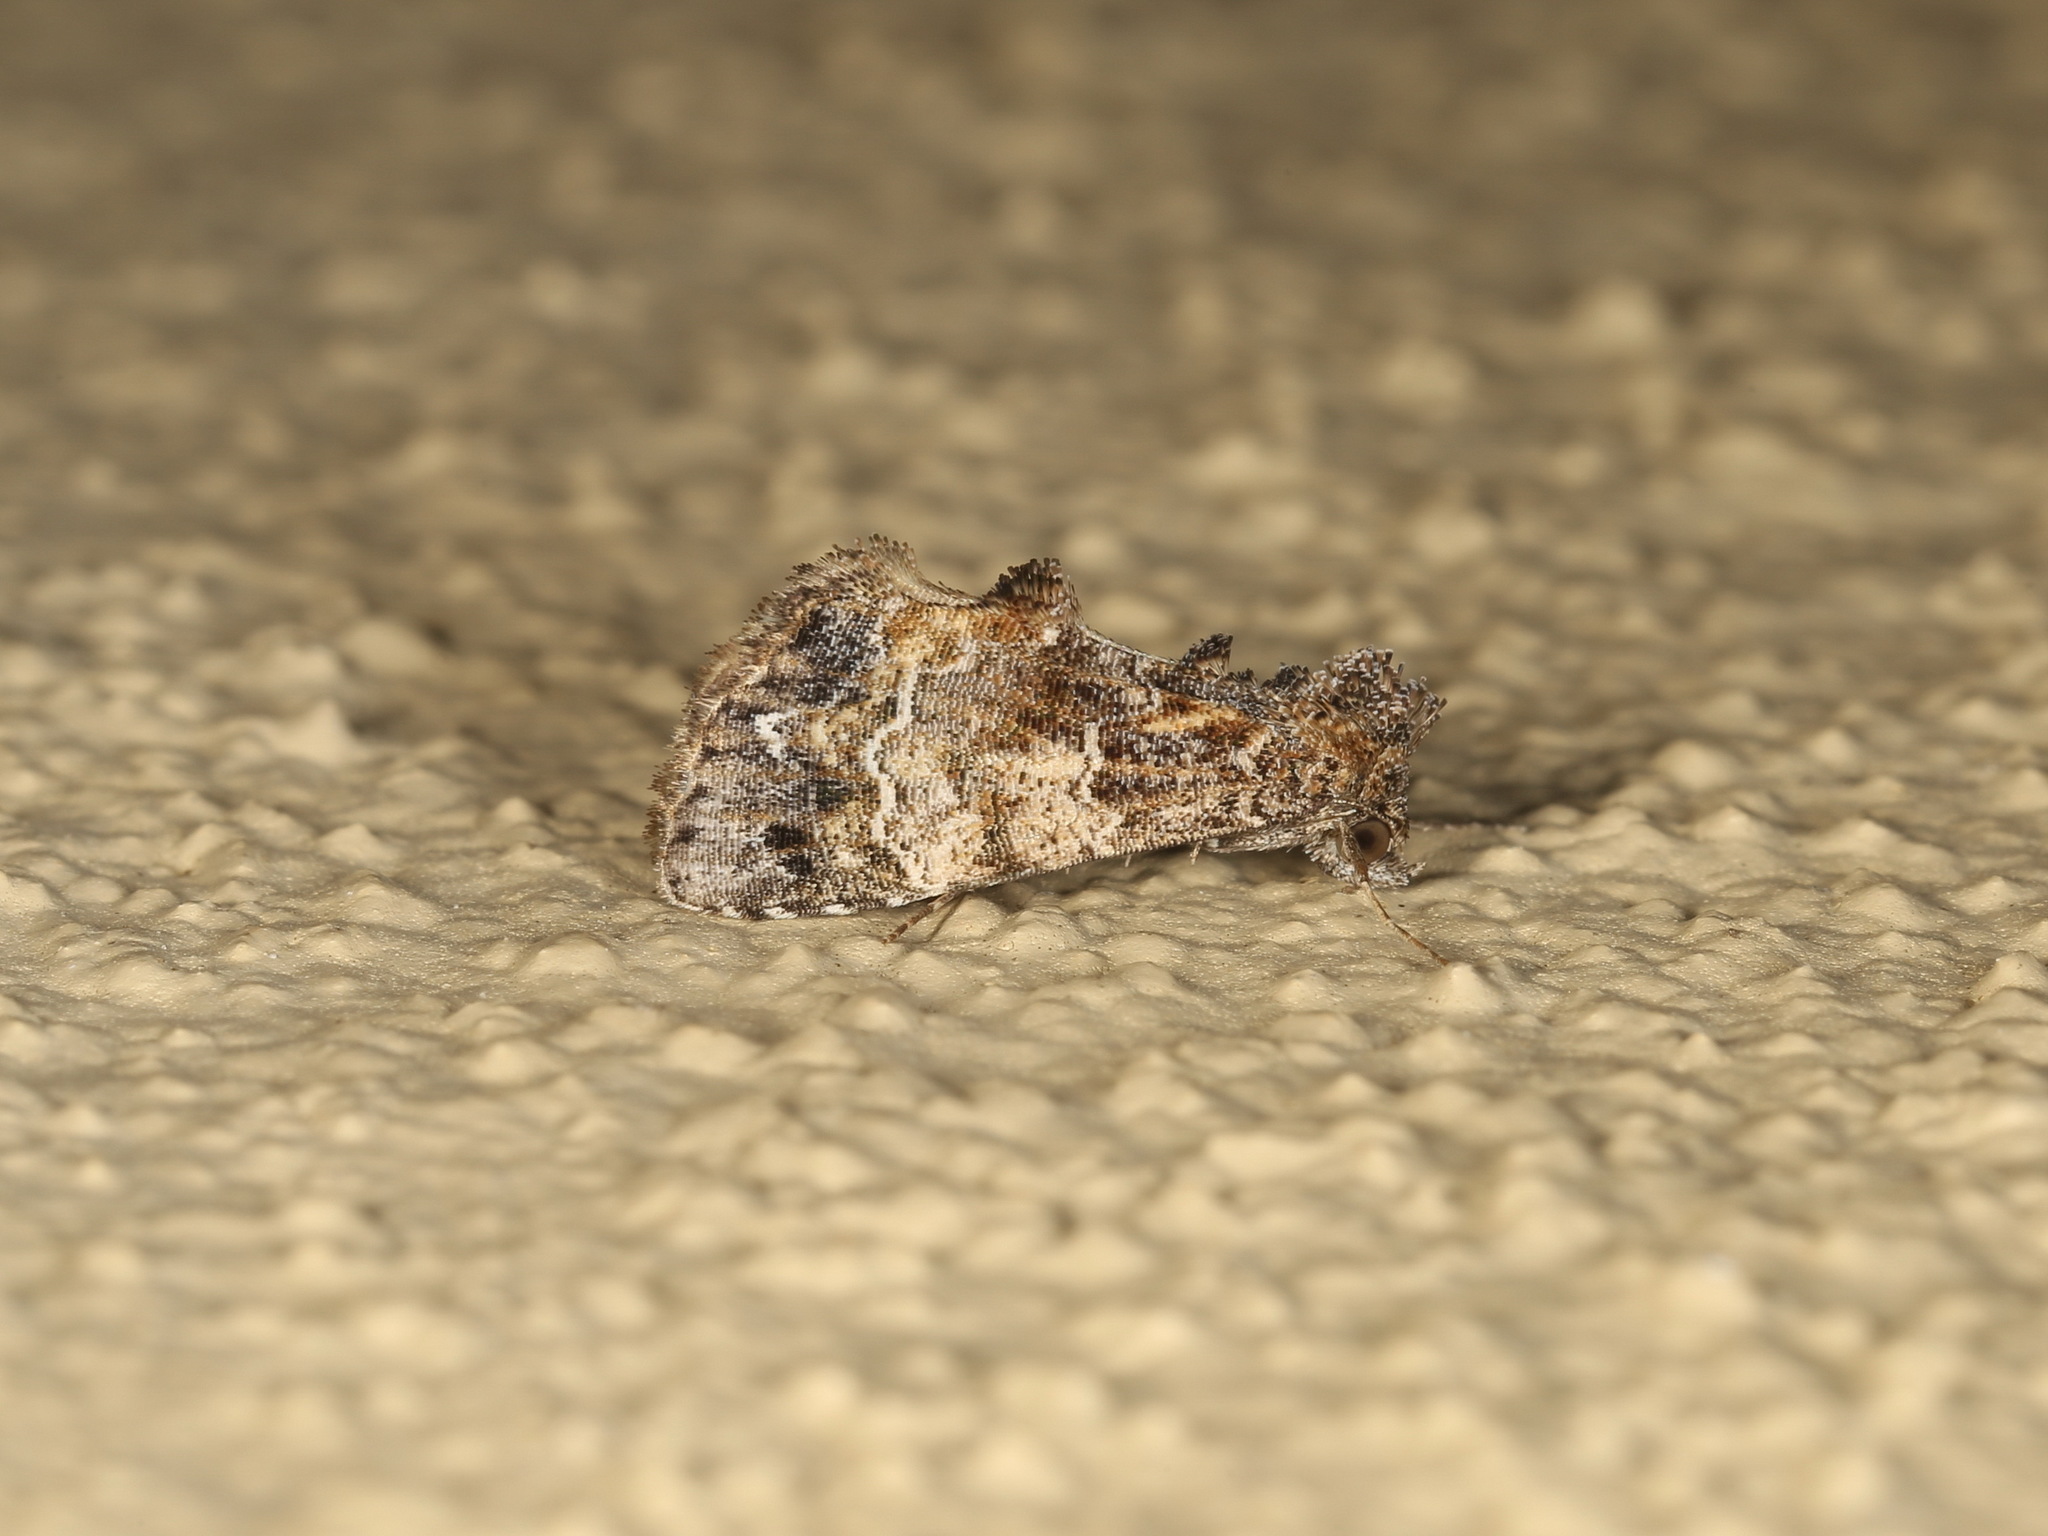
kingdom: Animalia
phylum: Arthropoda
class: Insecta
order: Lepidoptera
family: Erebidae
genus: Arrade
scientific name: Arrade destituta
